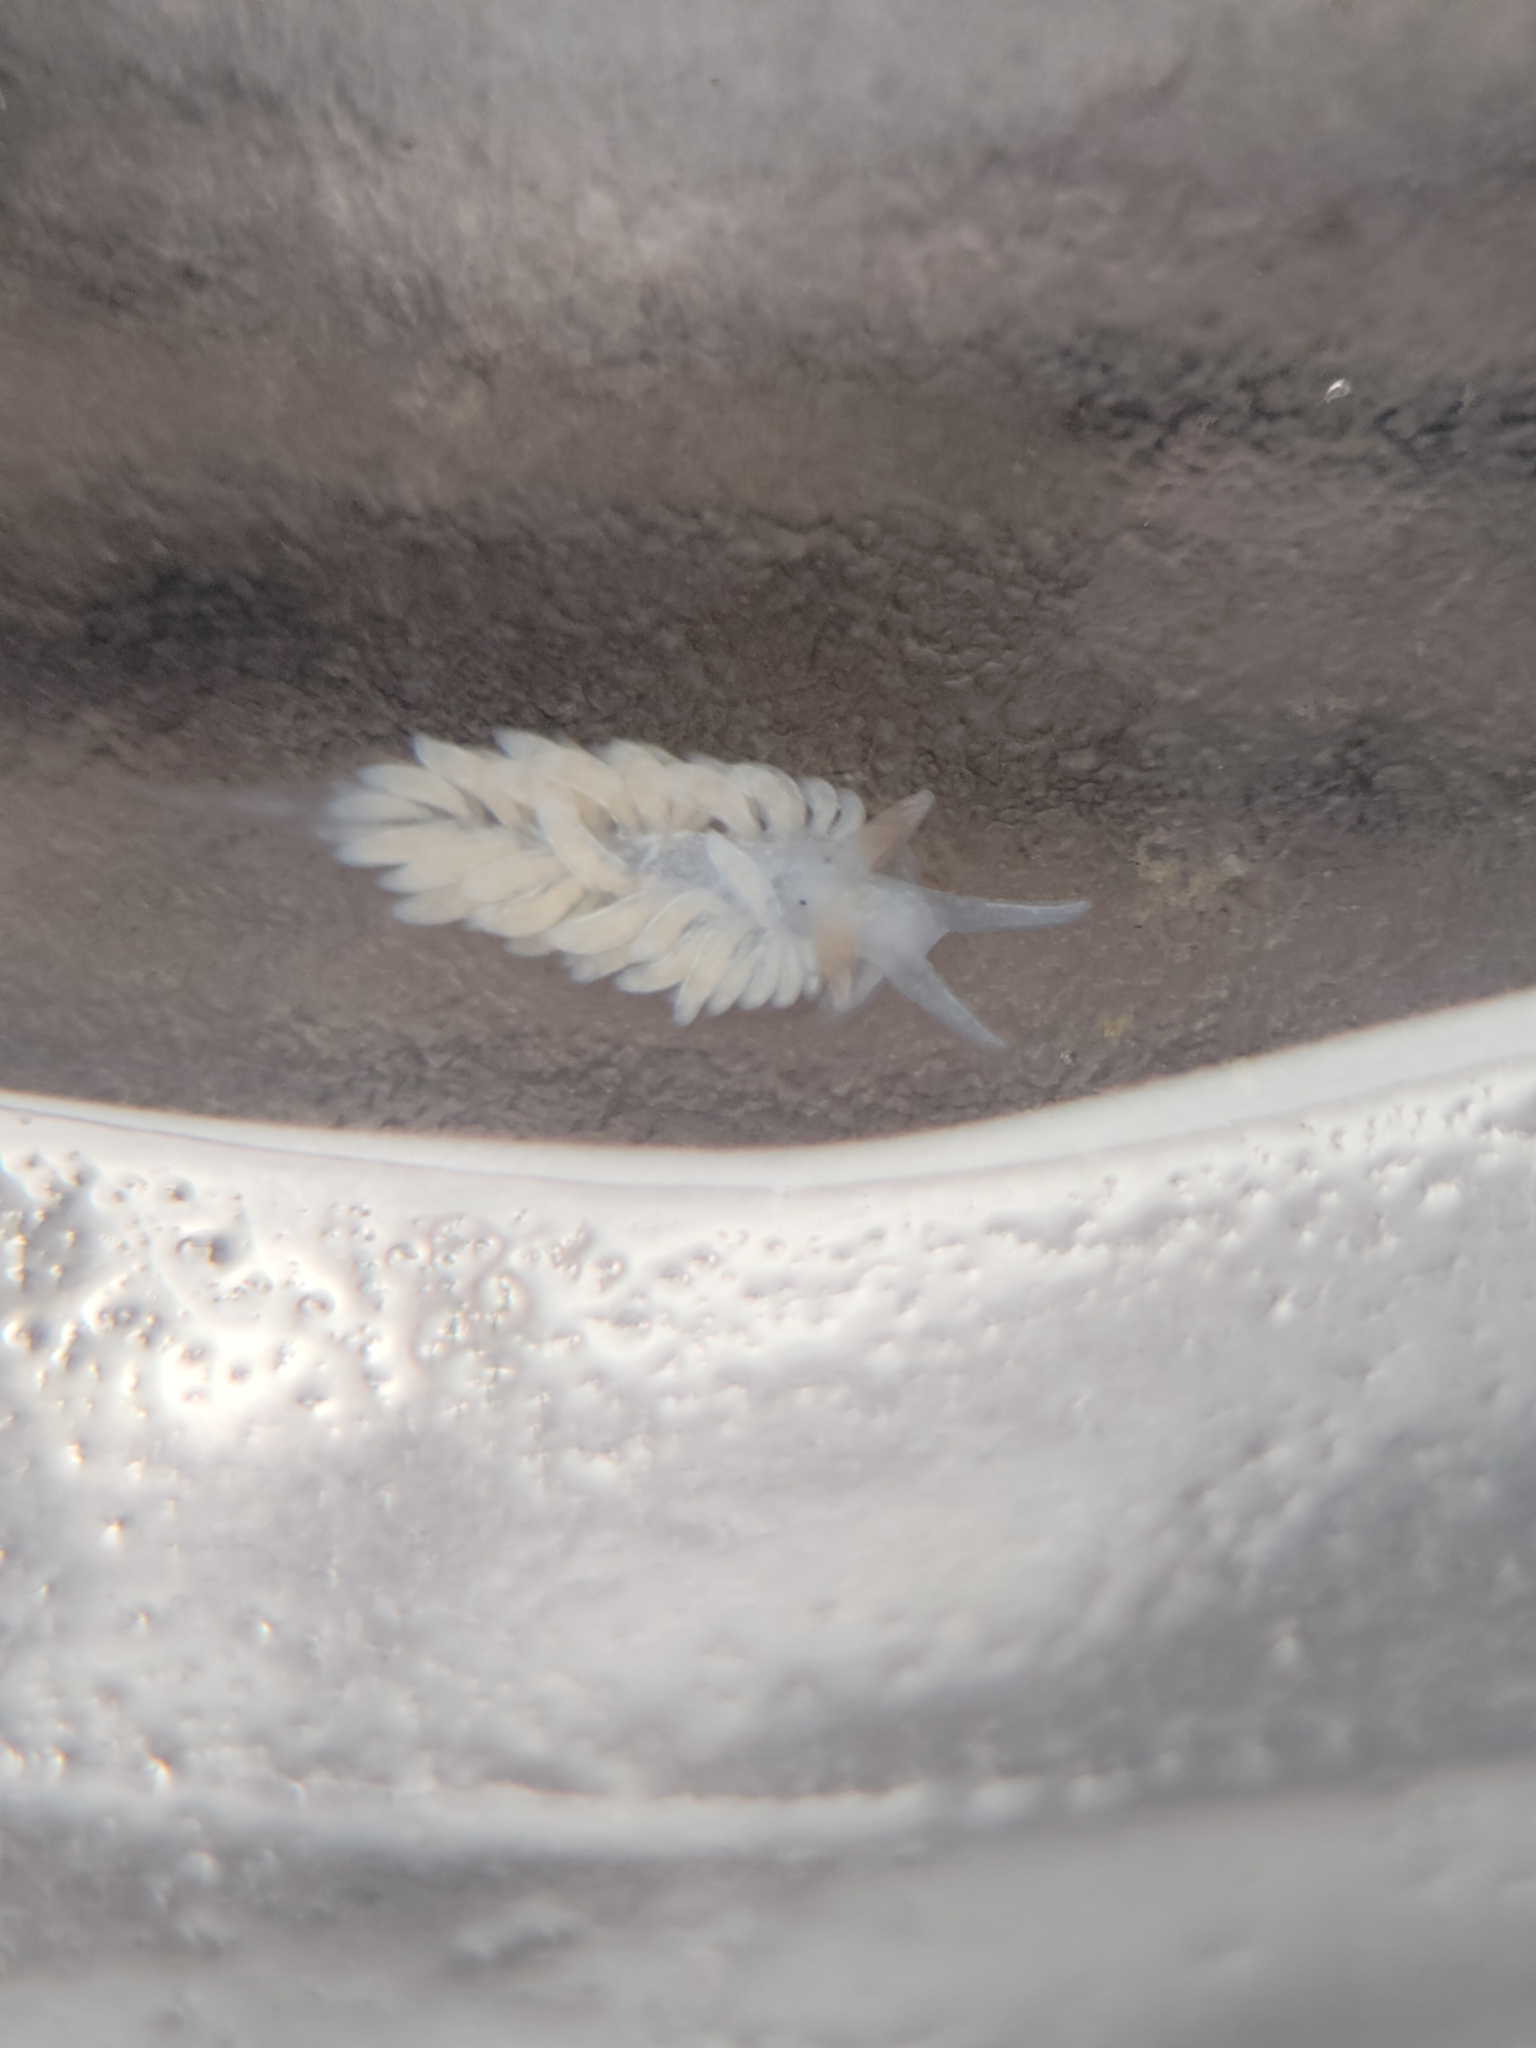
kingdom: Animalia
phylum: Mollusca
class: Gastropoda
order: Nudibranchia
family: Aeolidiidae
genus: Anteaeolidiella
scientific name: Anteaeolidiella oliviae
